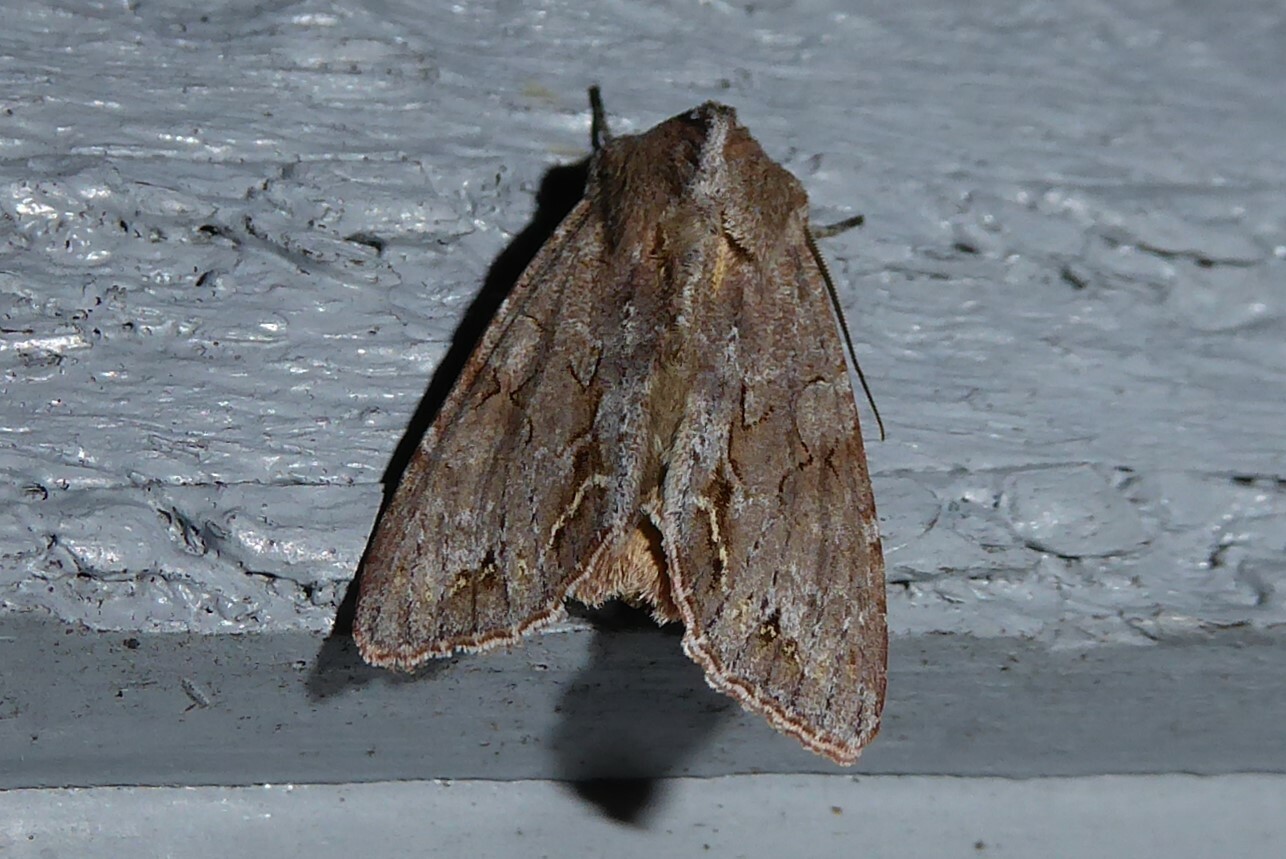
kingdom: Animalia
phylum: Arthropoda
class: Insecta
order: Lepidoptera
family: Noctuidae
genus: Ichneutica
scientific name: Ichneutica
